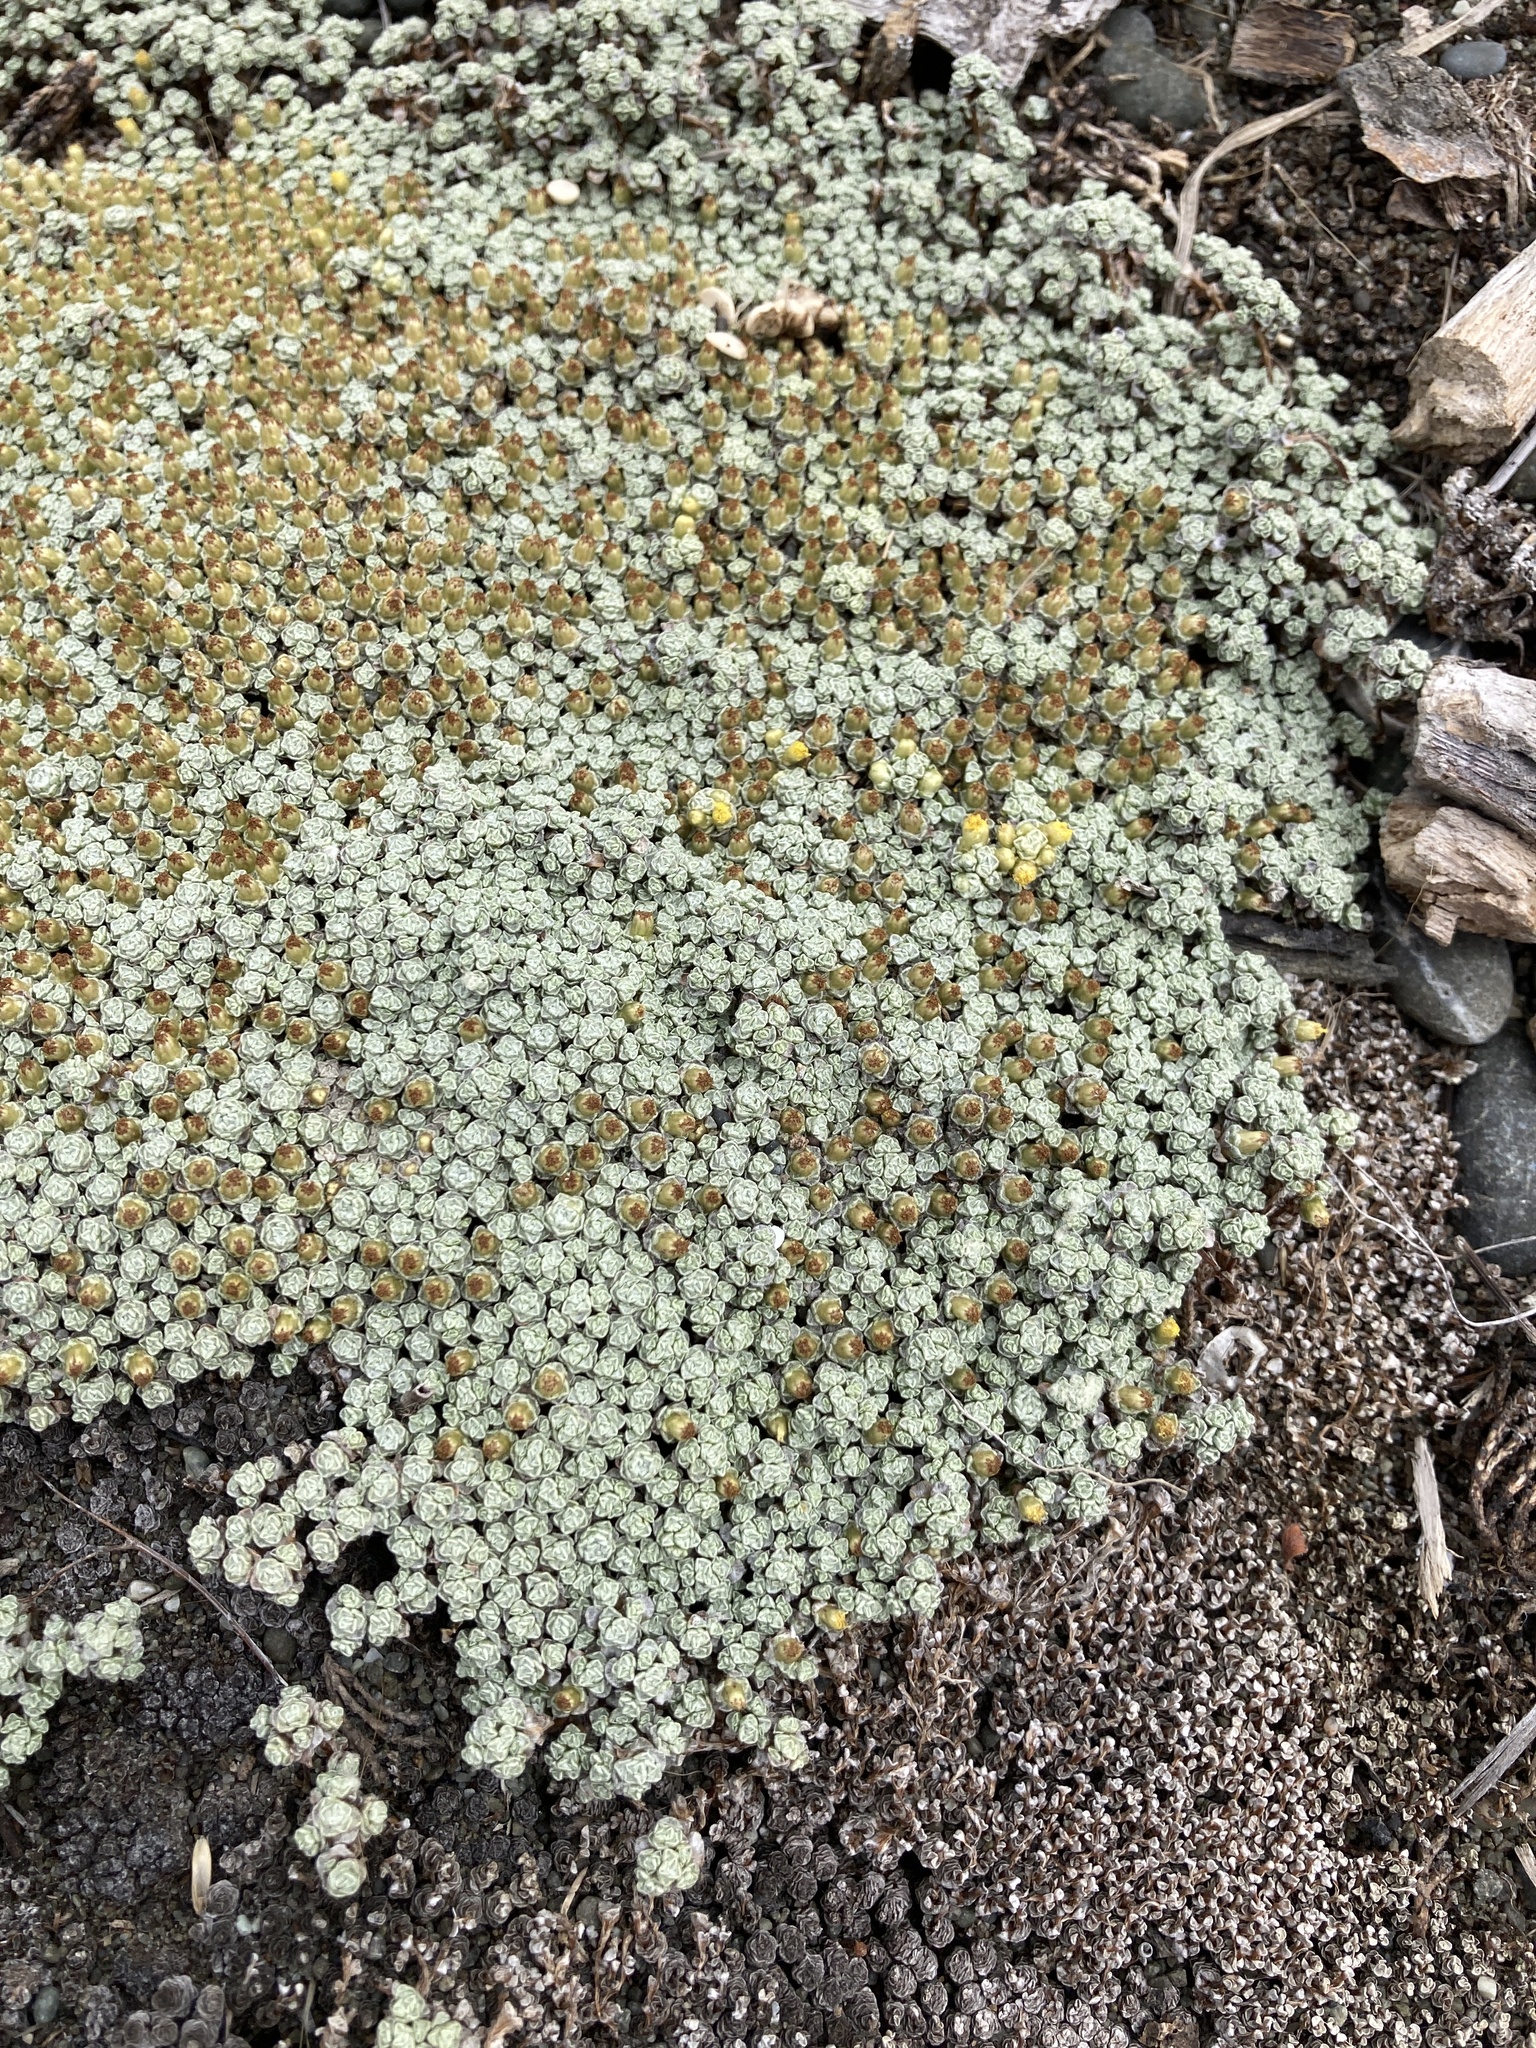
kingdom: Plantae
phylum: Tracheophyta
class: Magnoliopsida
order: Asterales
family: Asteraceae
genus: Raoulia
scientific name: Raoulia australis
